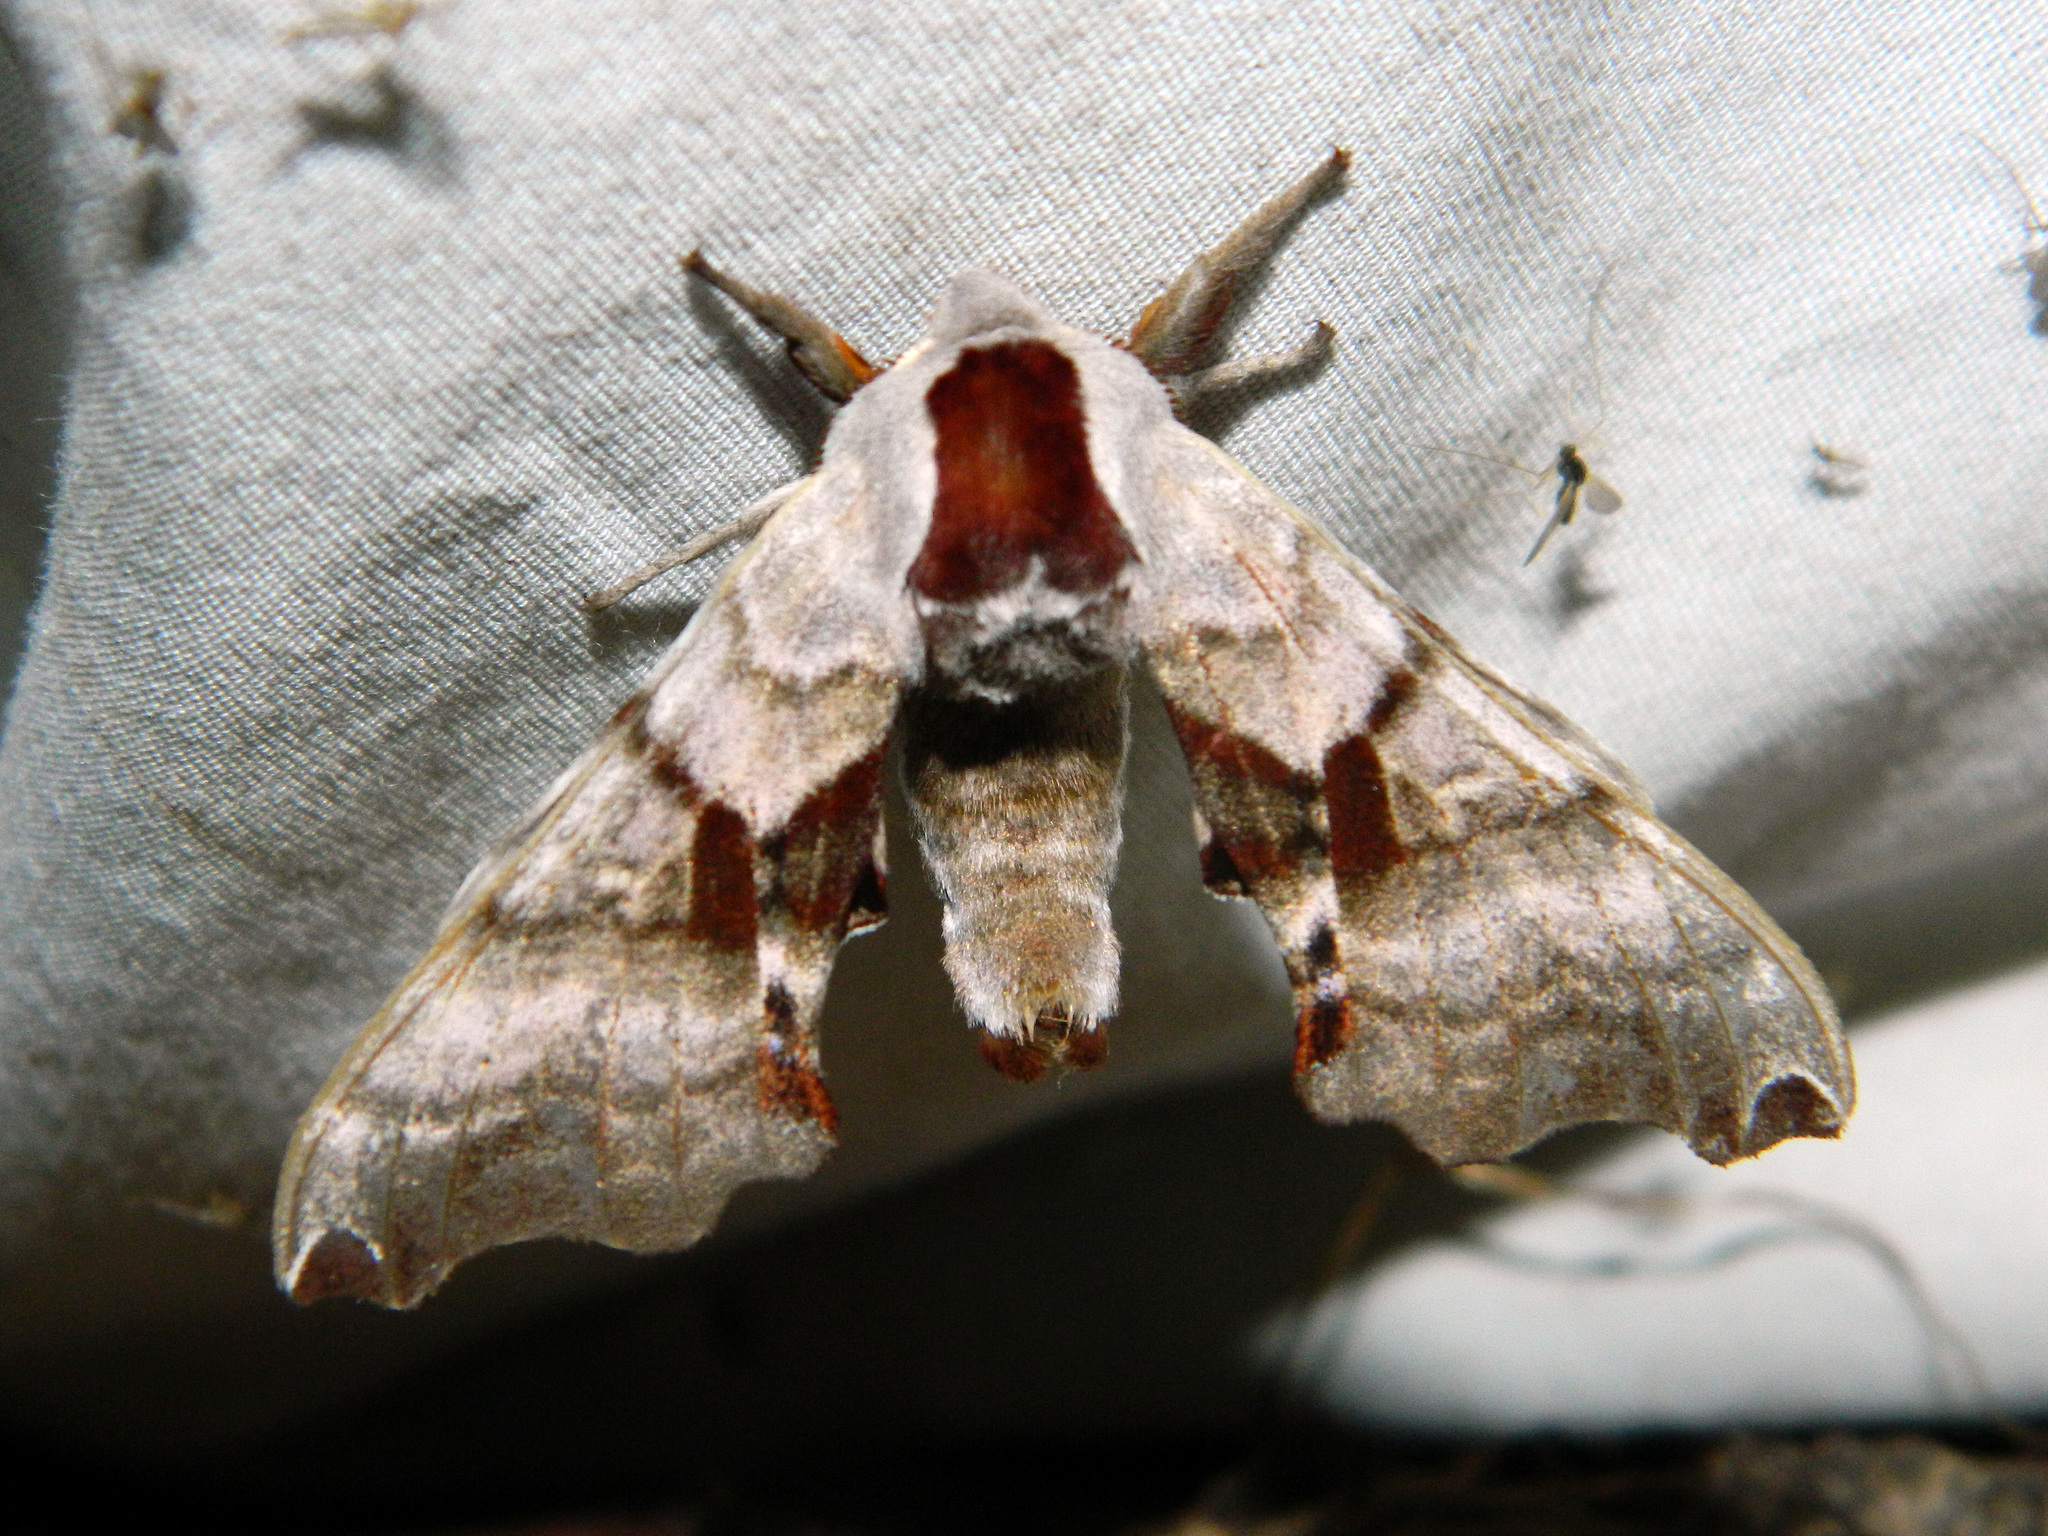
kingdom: Animalia
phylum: Arthropoda
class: Insecta
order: Lepidoptera
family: Sphingidae
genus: Smerinthus
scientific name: Smerinthus jamaicensis
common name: Twin spotted sphinx
